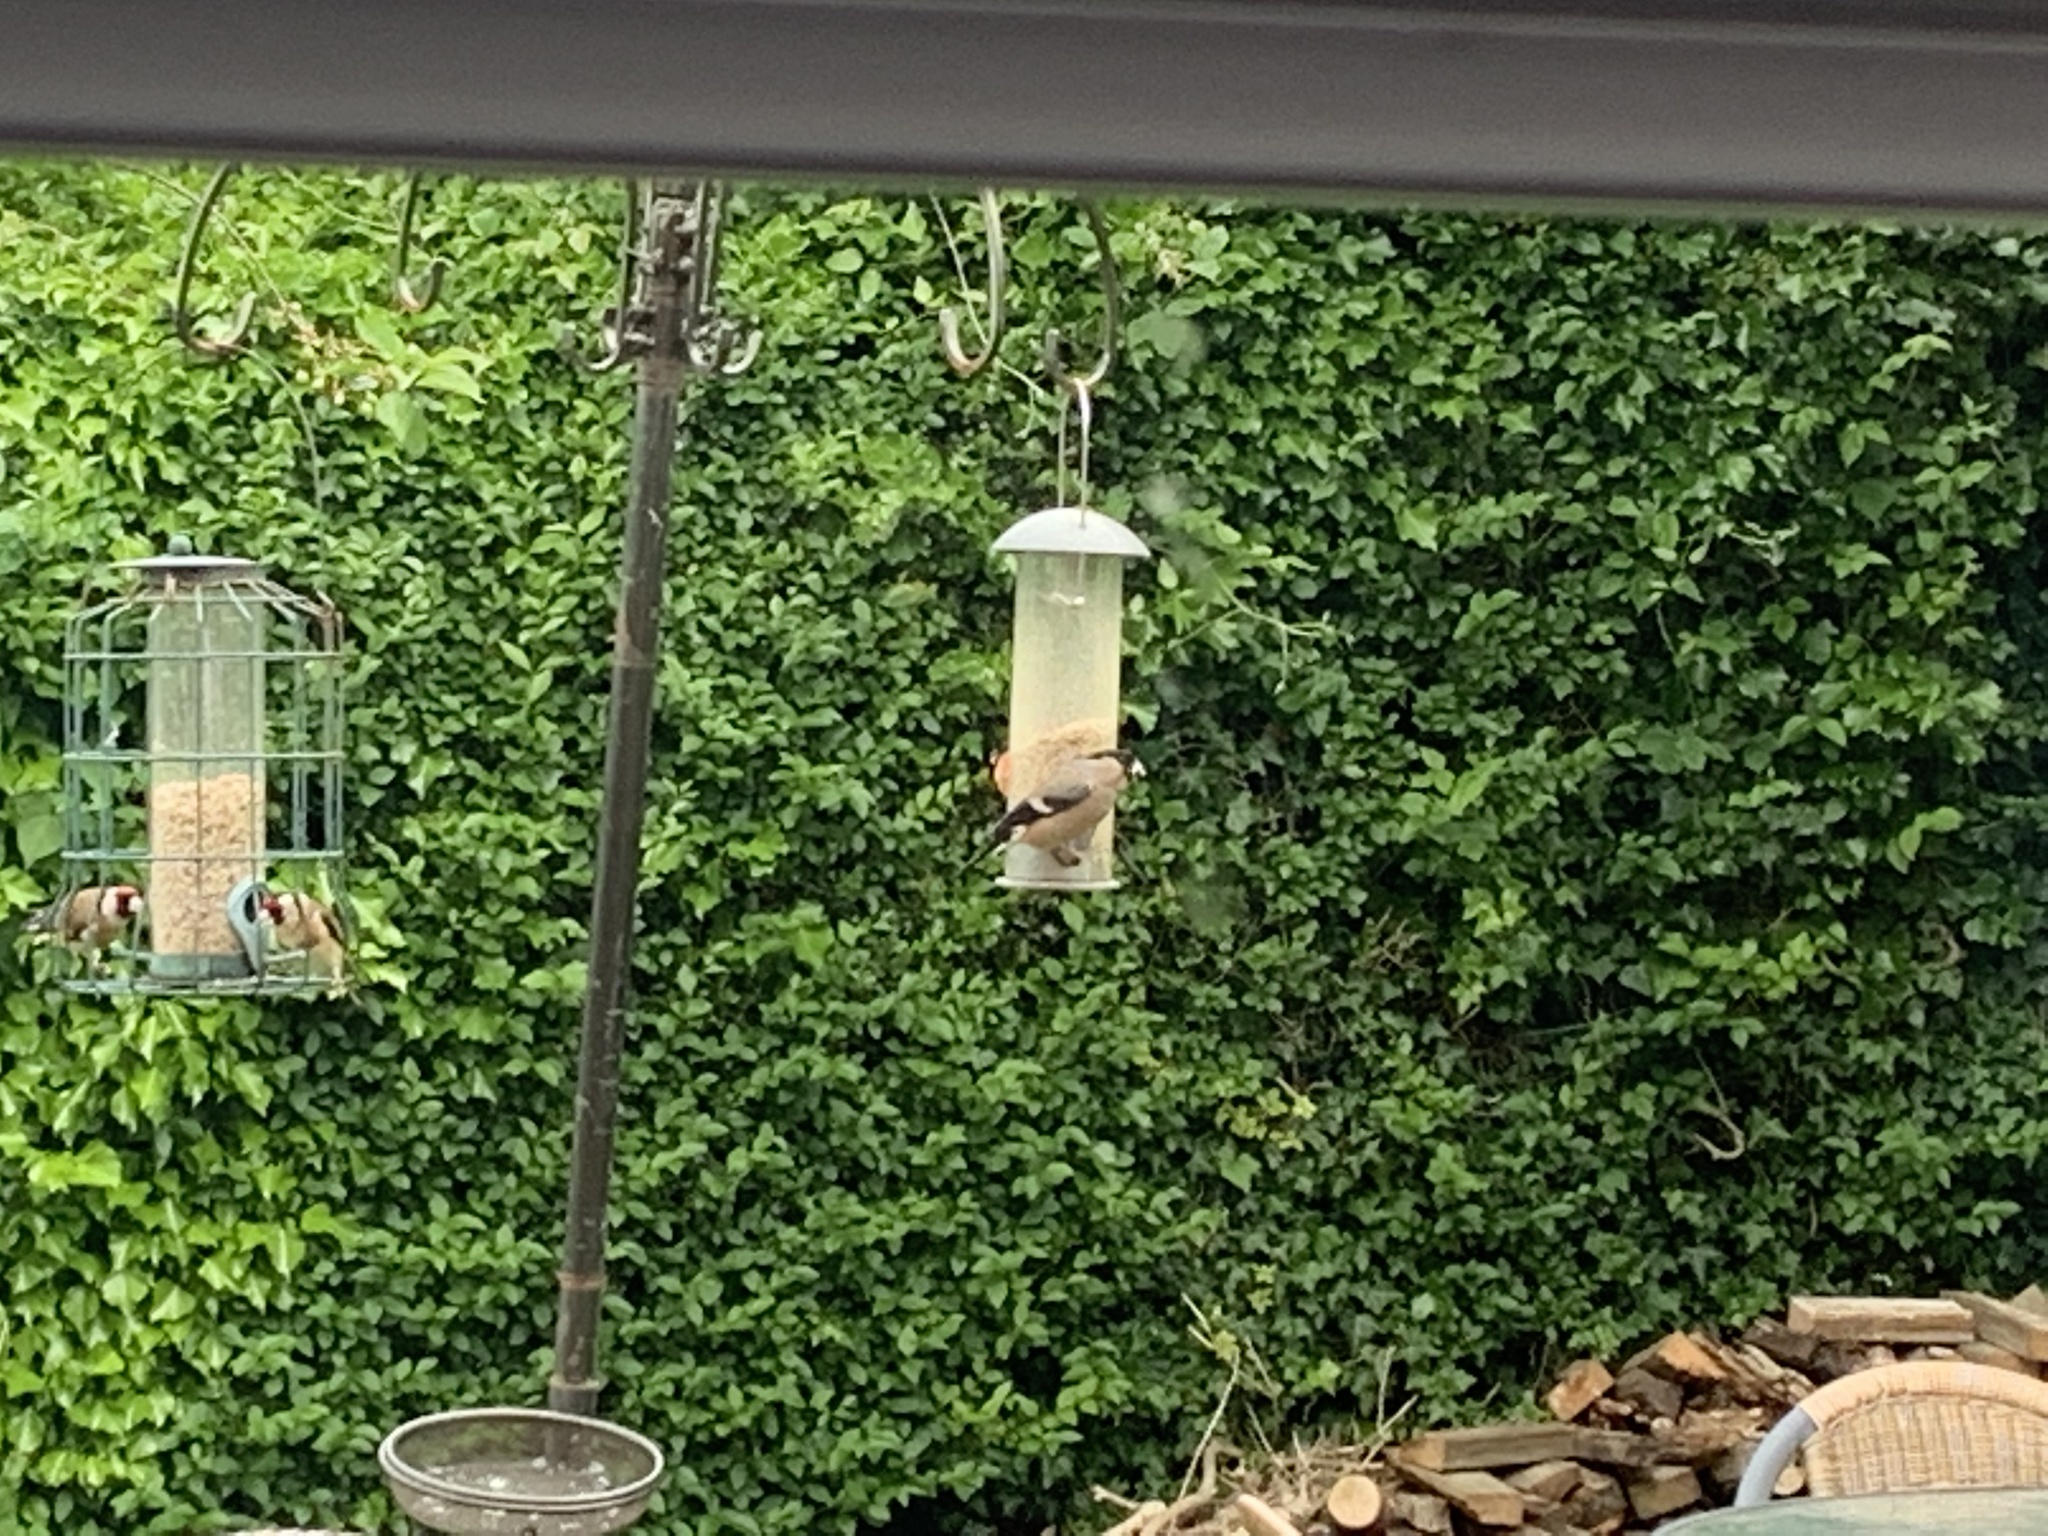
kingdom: Animalia
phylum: Chordata
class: Aves
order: Passeriformes
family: Fringillidae
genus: Pyrrhula
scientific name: Pyrrhula pyrrhula
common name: Eurasian bullfinch
